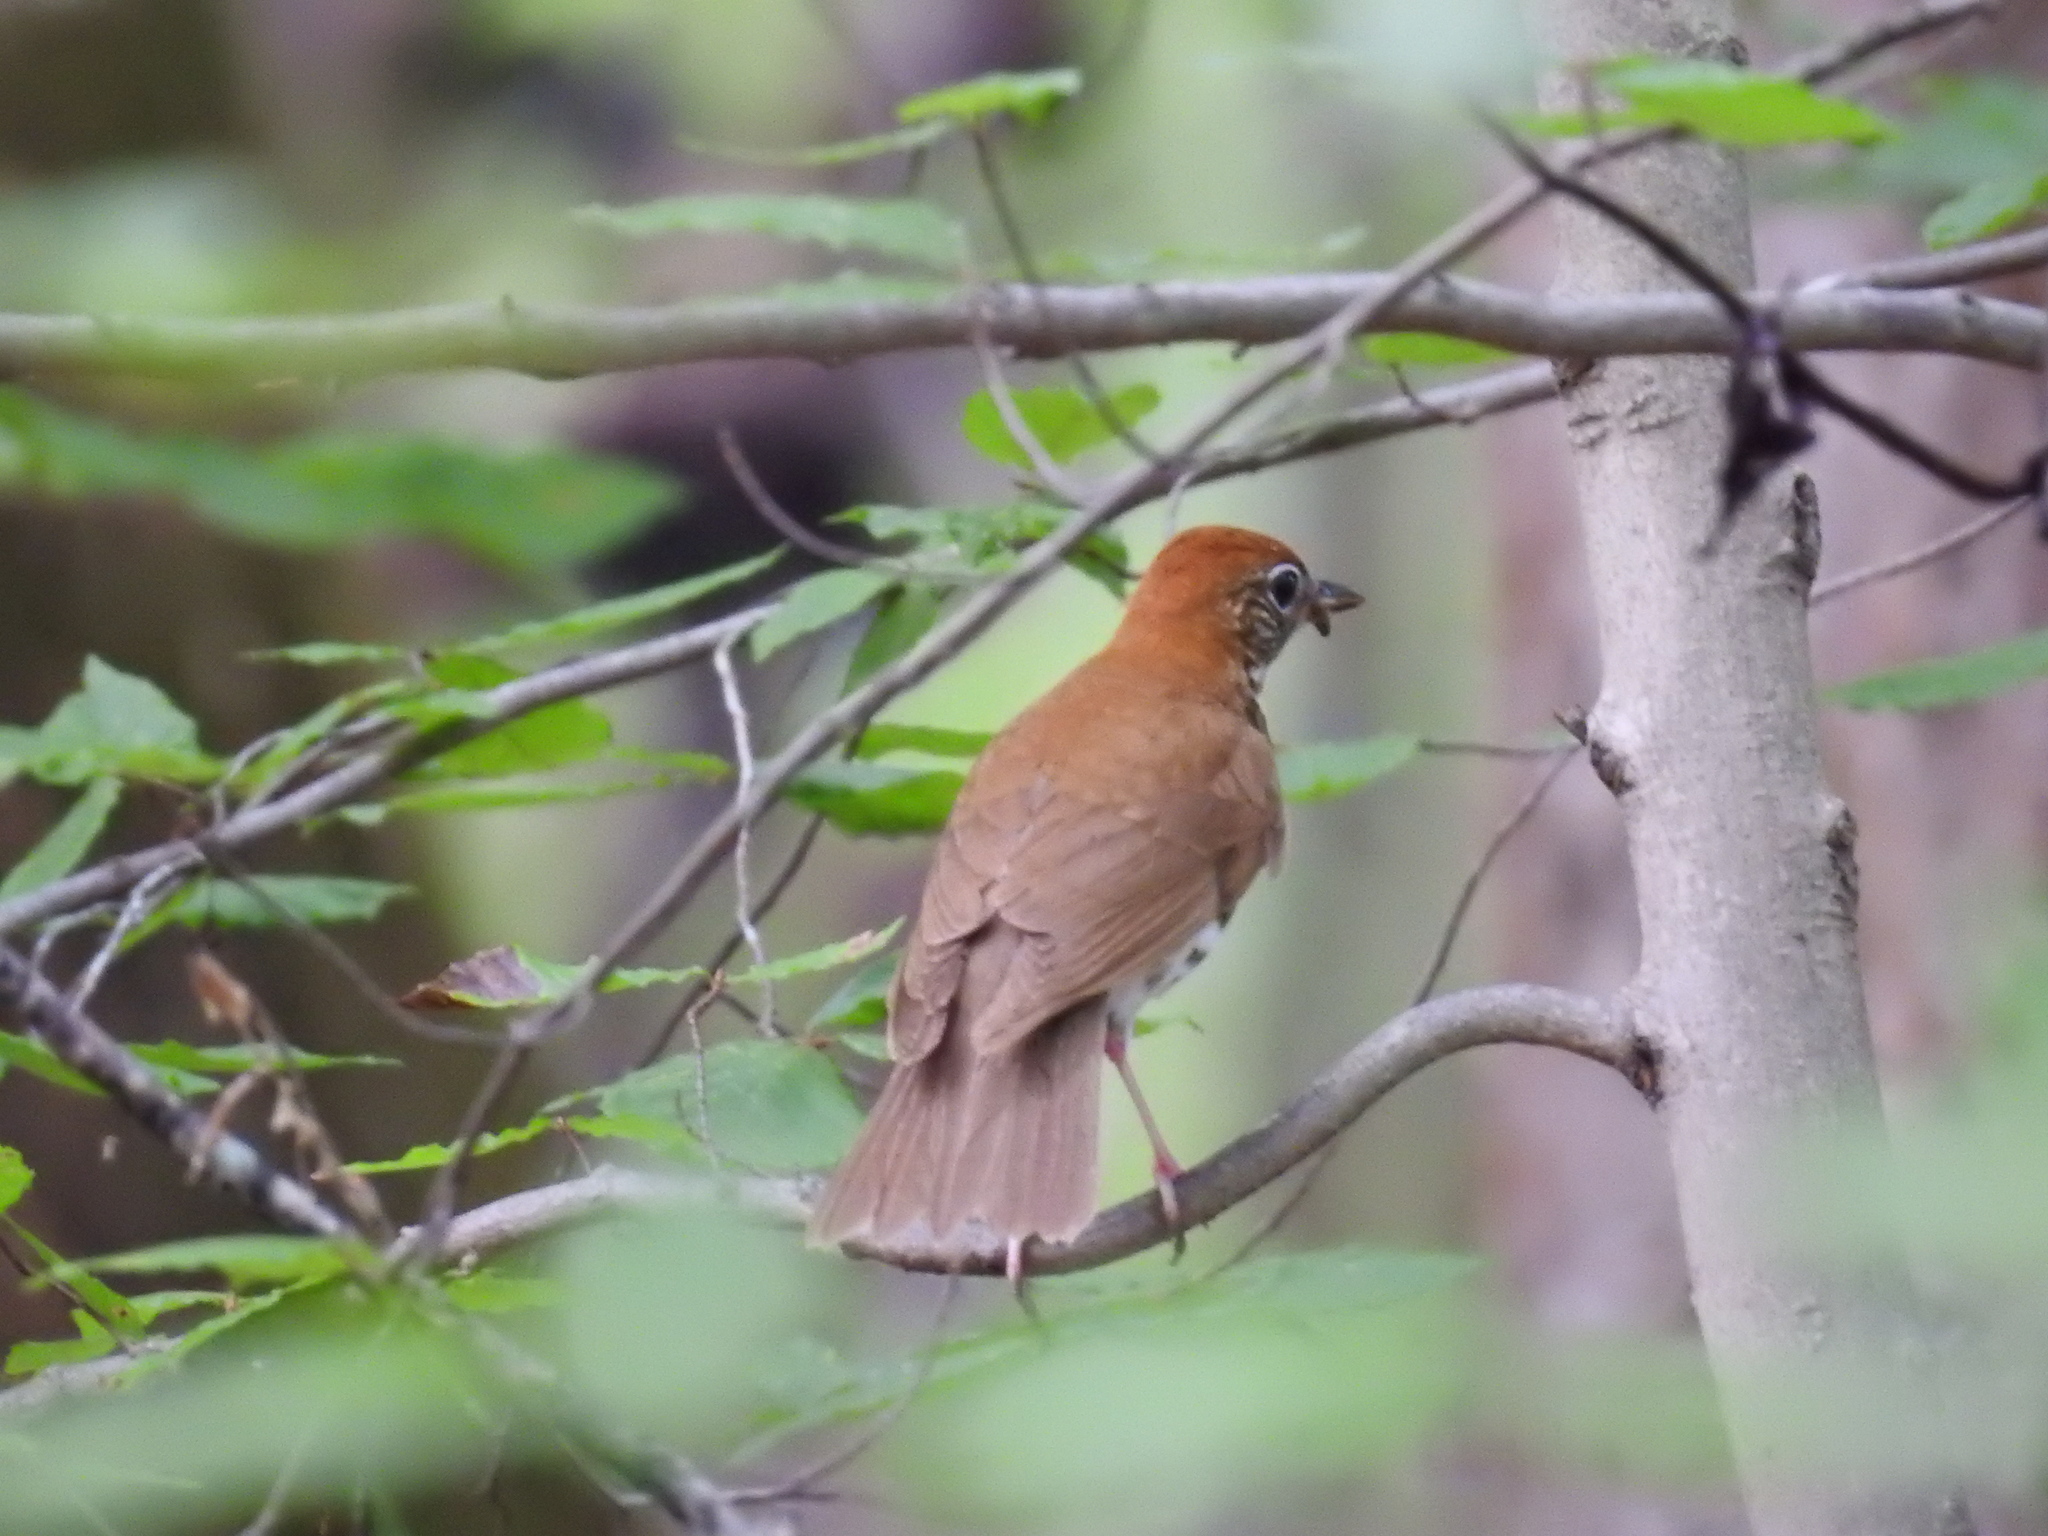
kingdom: Animalia
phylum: Chordata
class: Aves
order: Passeriformes
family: Turdidae
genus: Hylocichla
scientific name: Hylocichla mustelina
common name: Wood thrush
